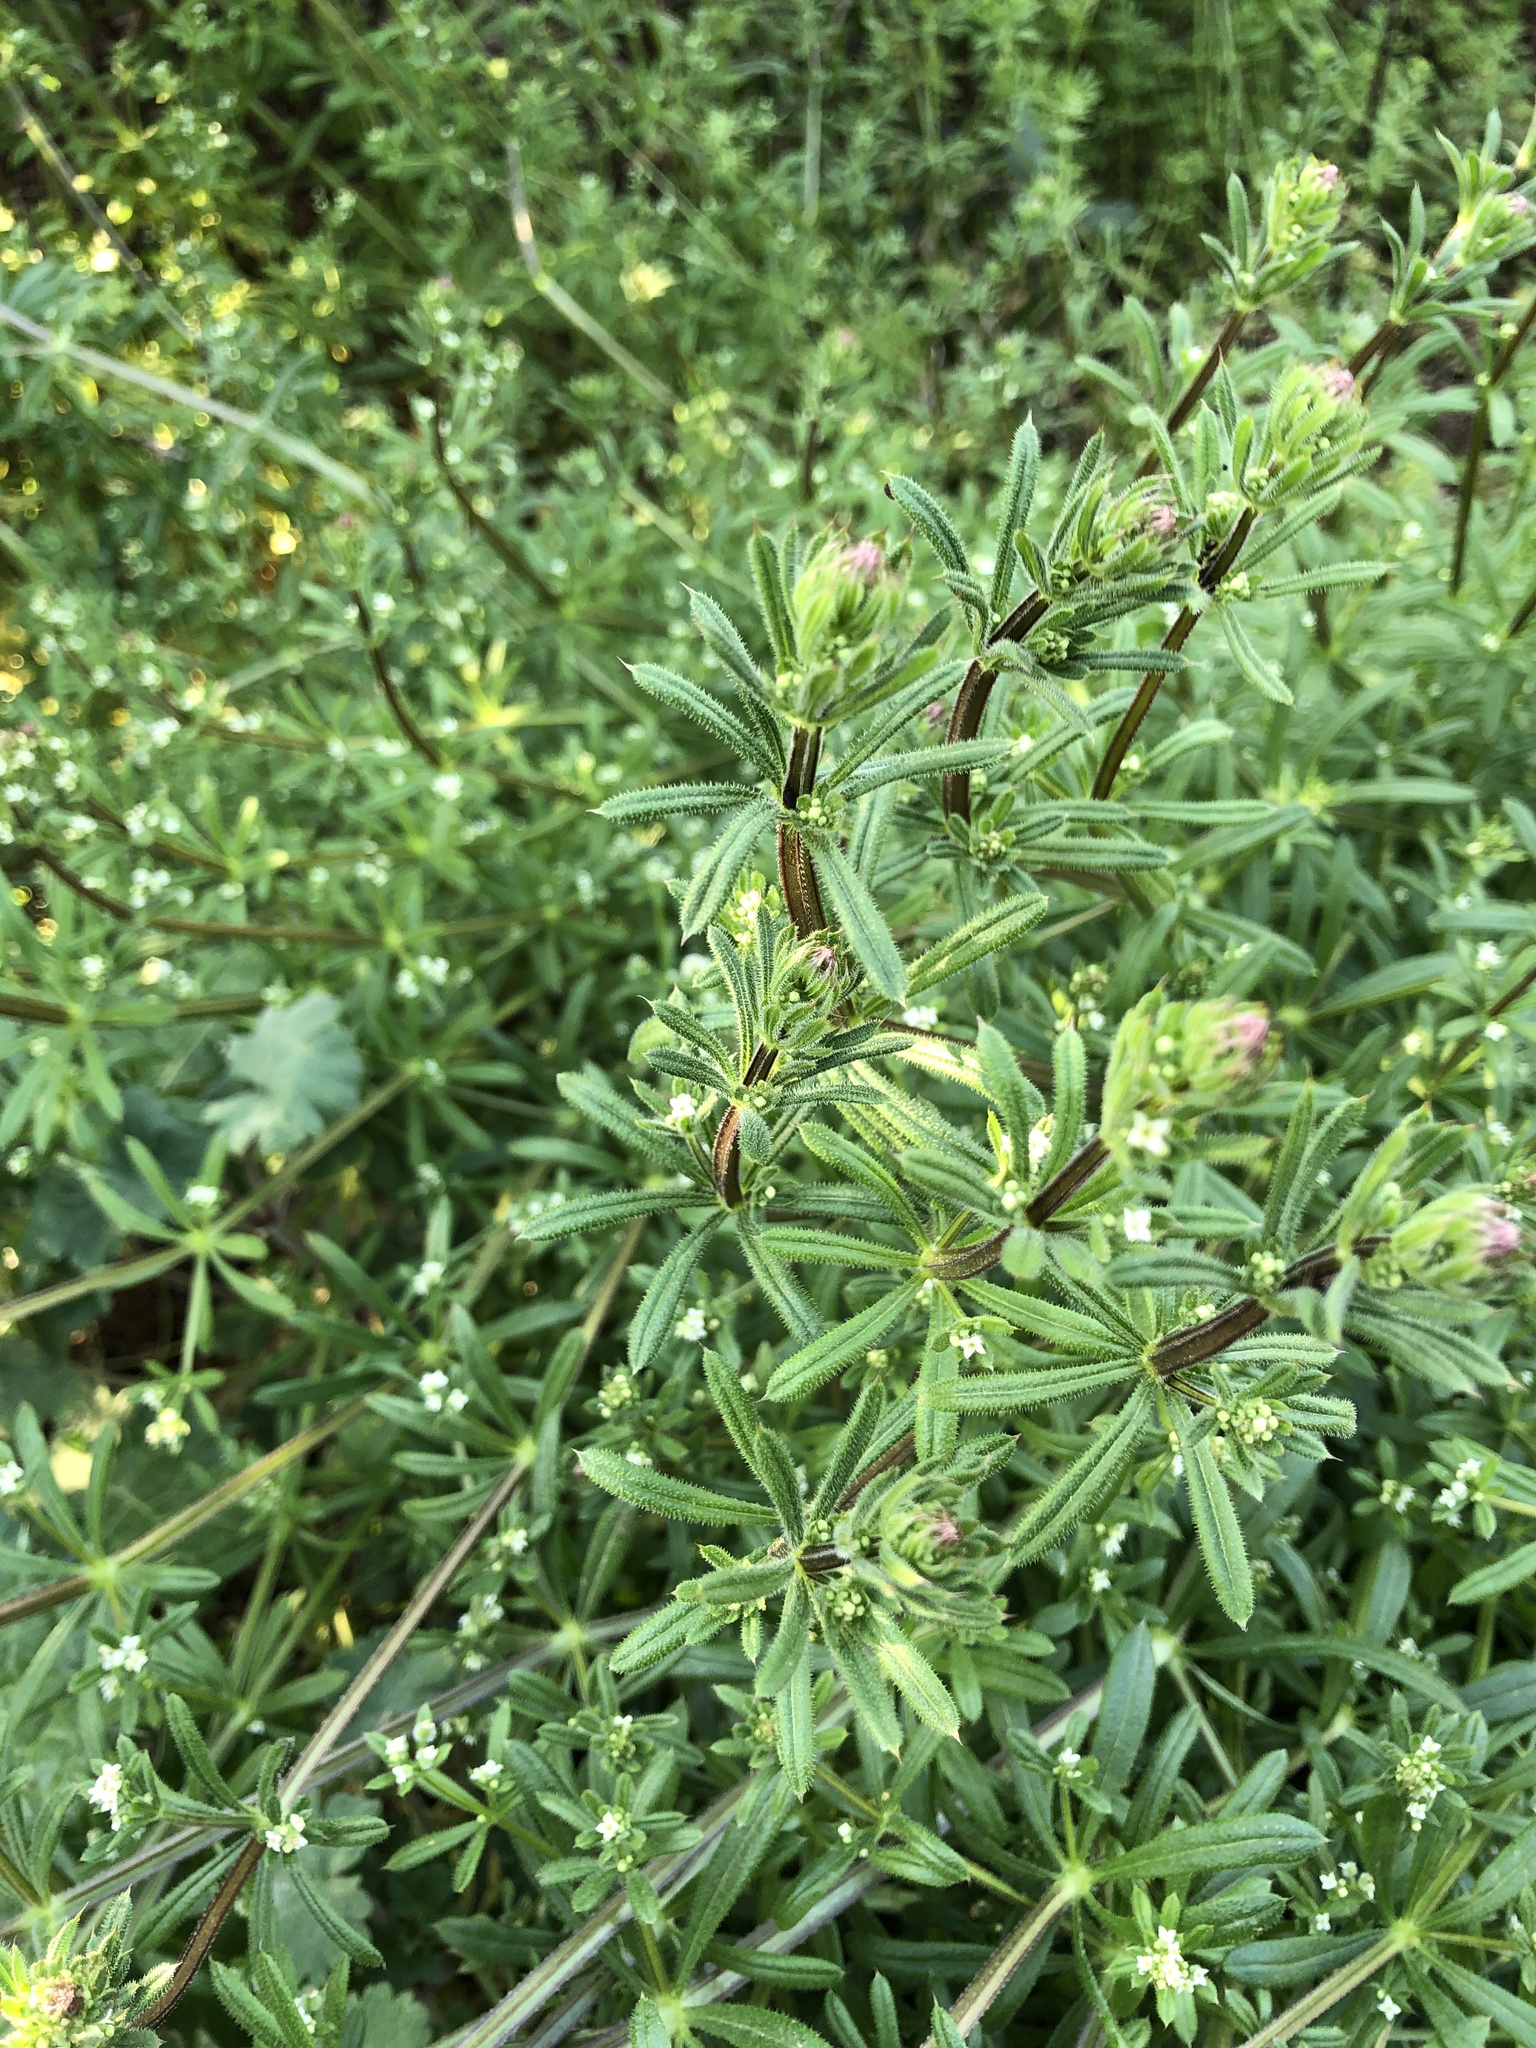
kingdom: Plantae
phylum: Tracheophyta
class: Magnoliopsida
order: Gentianales
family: Rubiaceae
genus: Galium
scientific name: Galium aparine
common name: Cleavers
